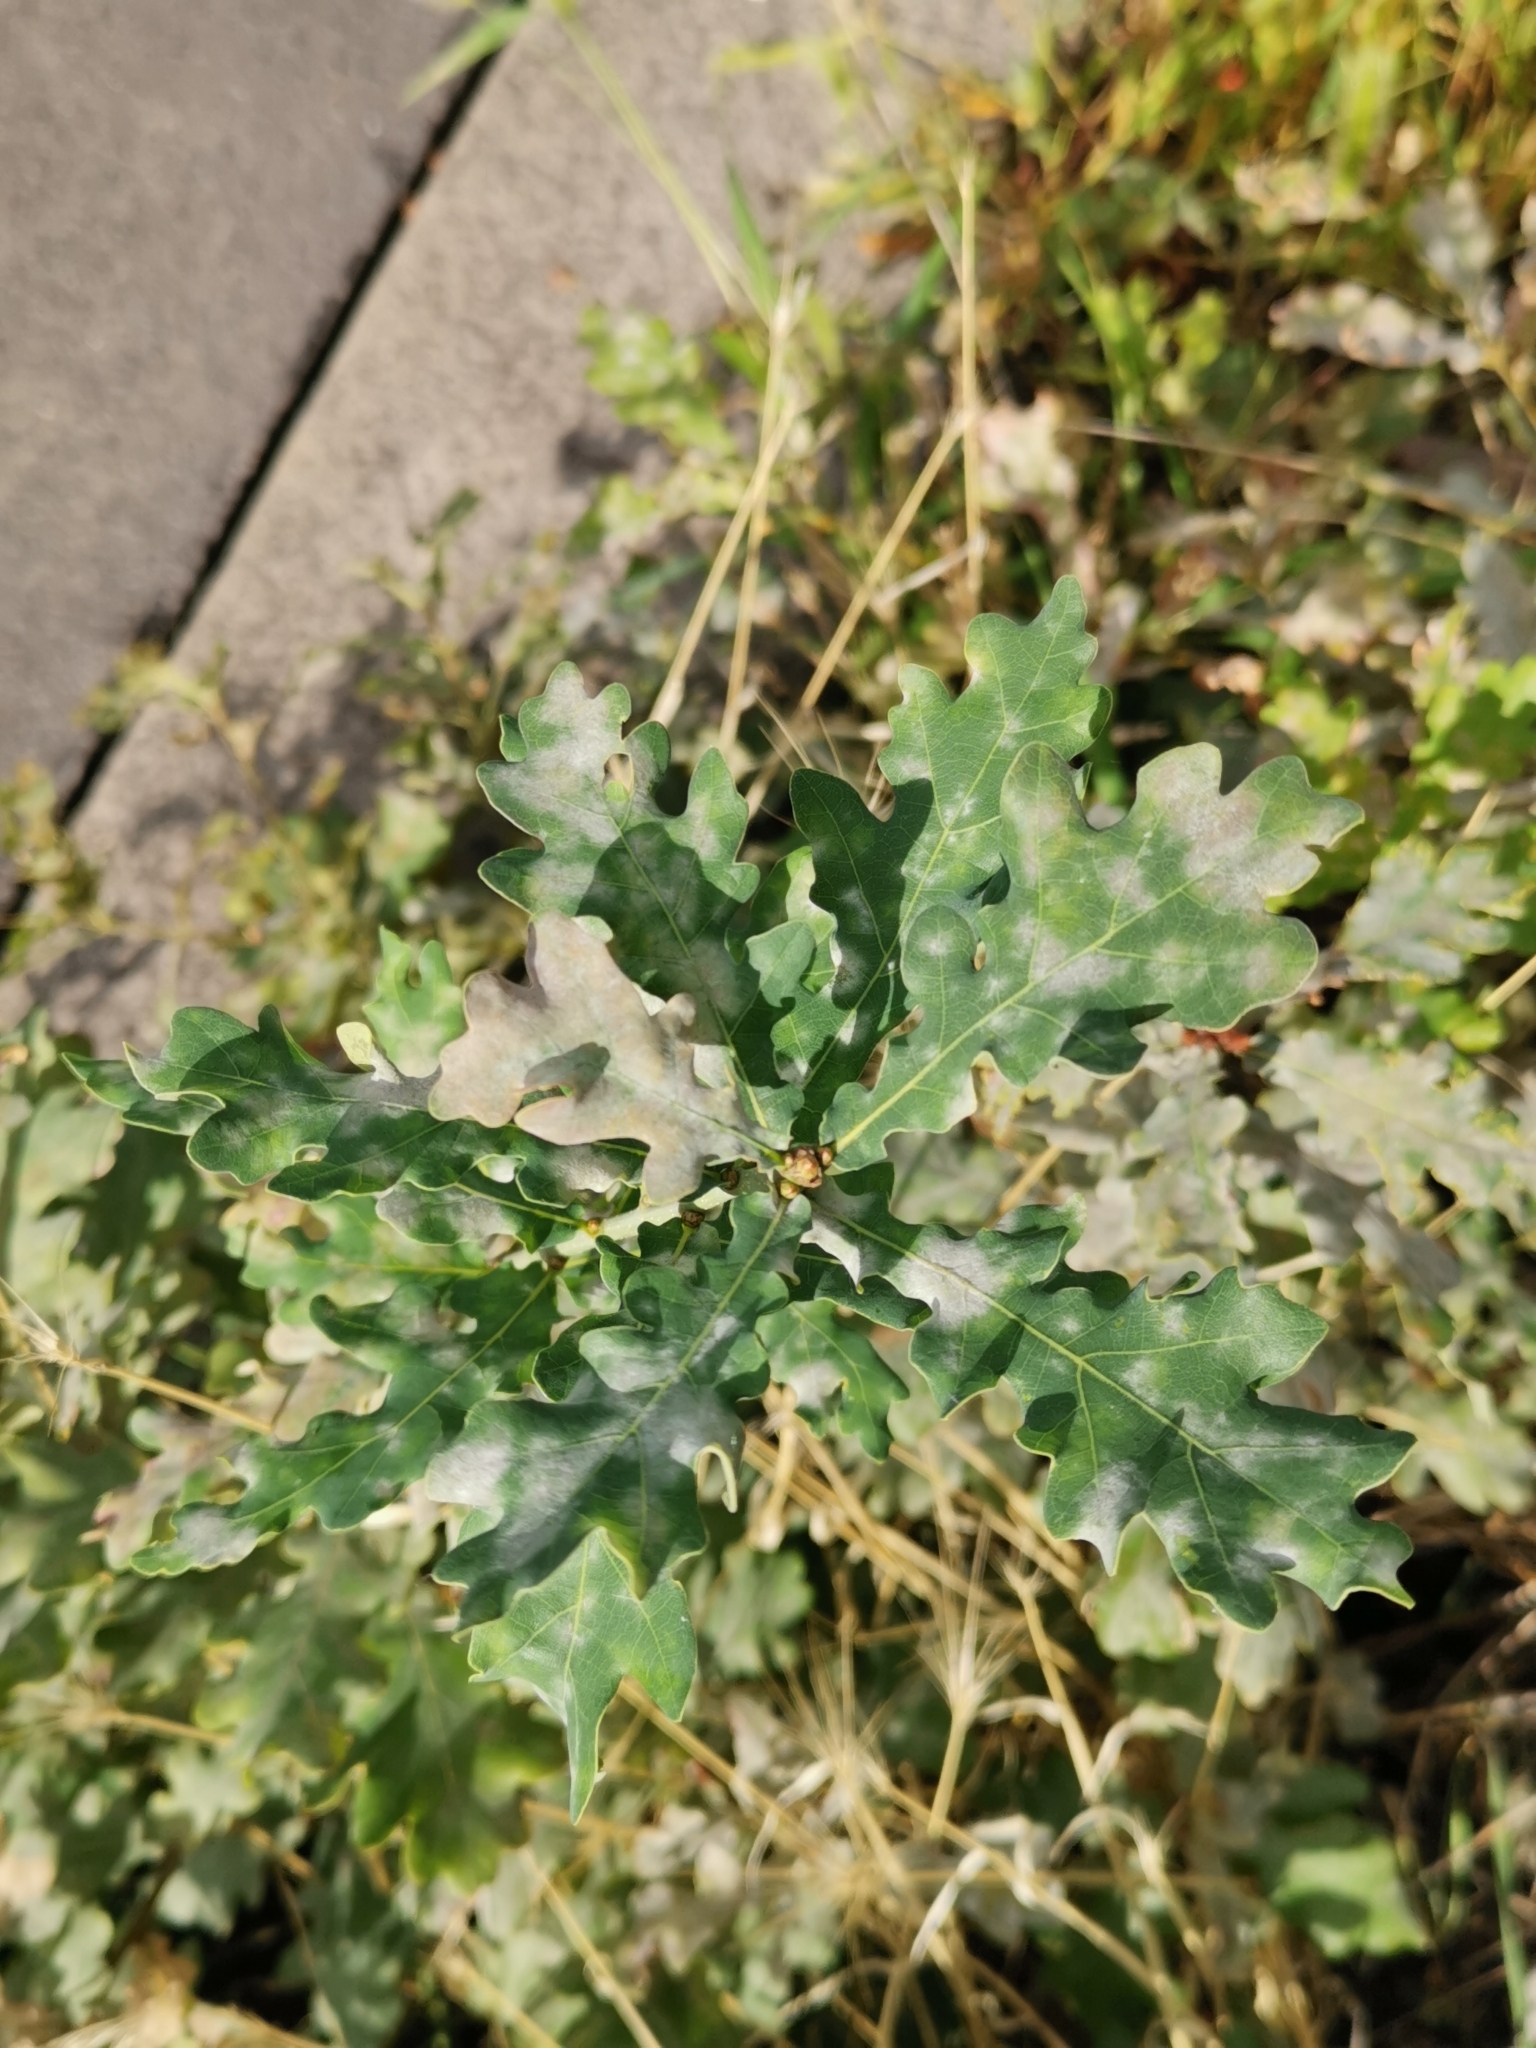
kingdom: Plantae
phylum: Tracheophyta
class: Magnoliopsida
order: Fagales
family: Fagaceae
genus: Quercus
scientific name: Quercus robur
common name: Pedunculate oak
